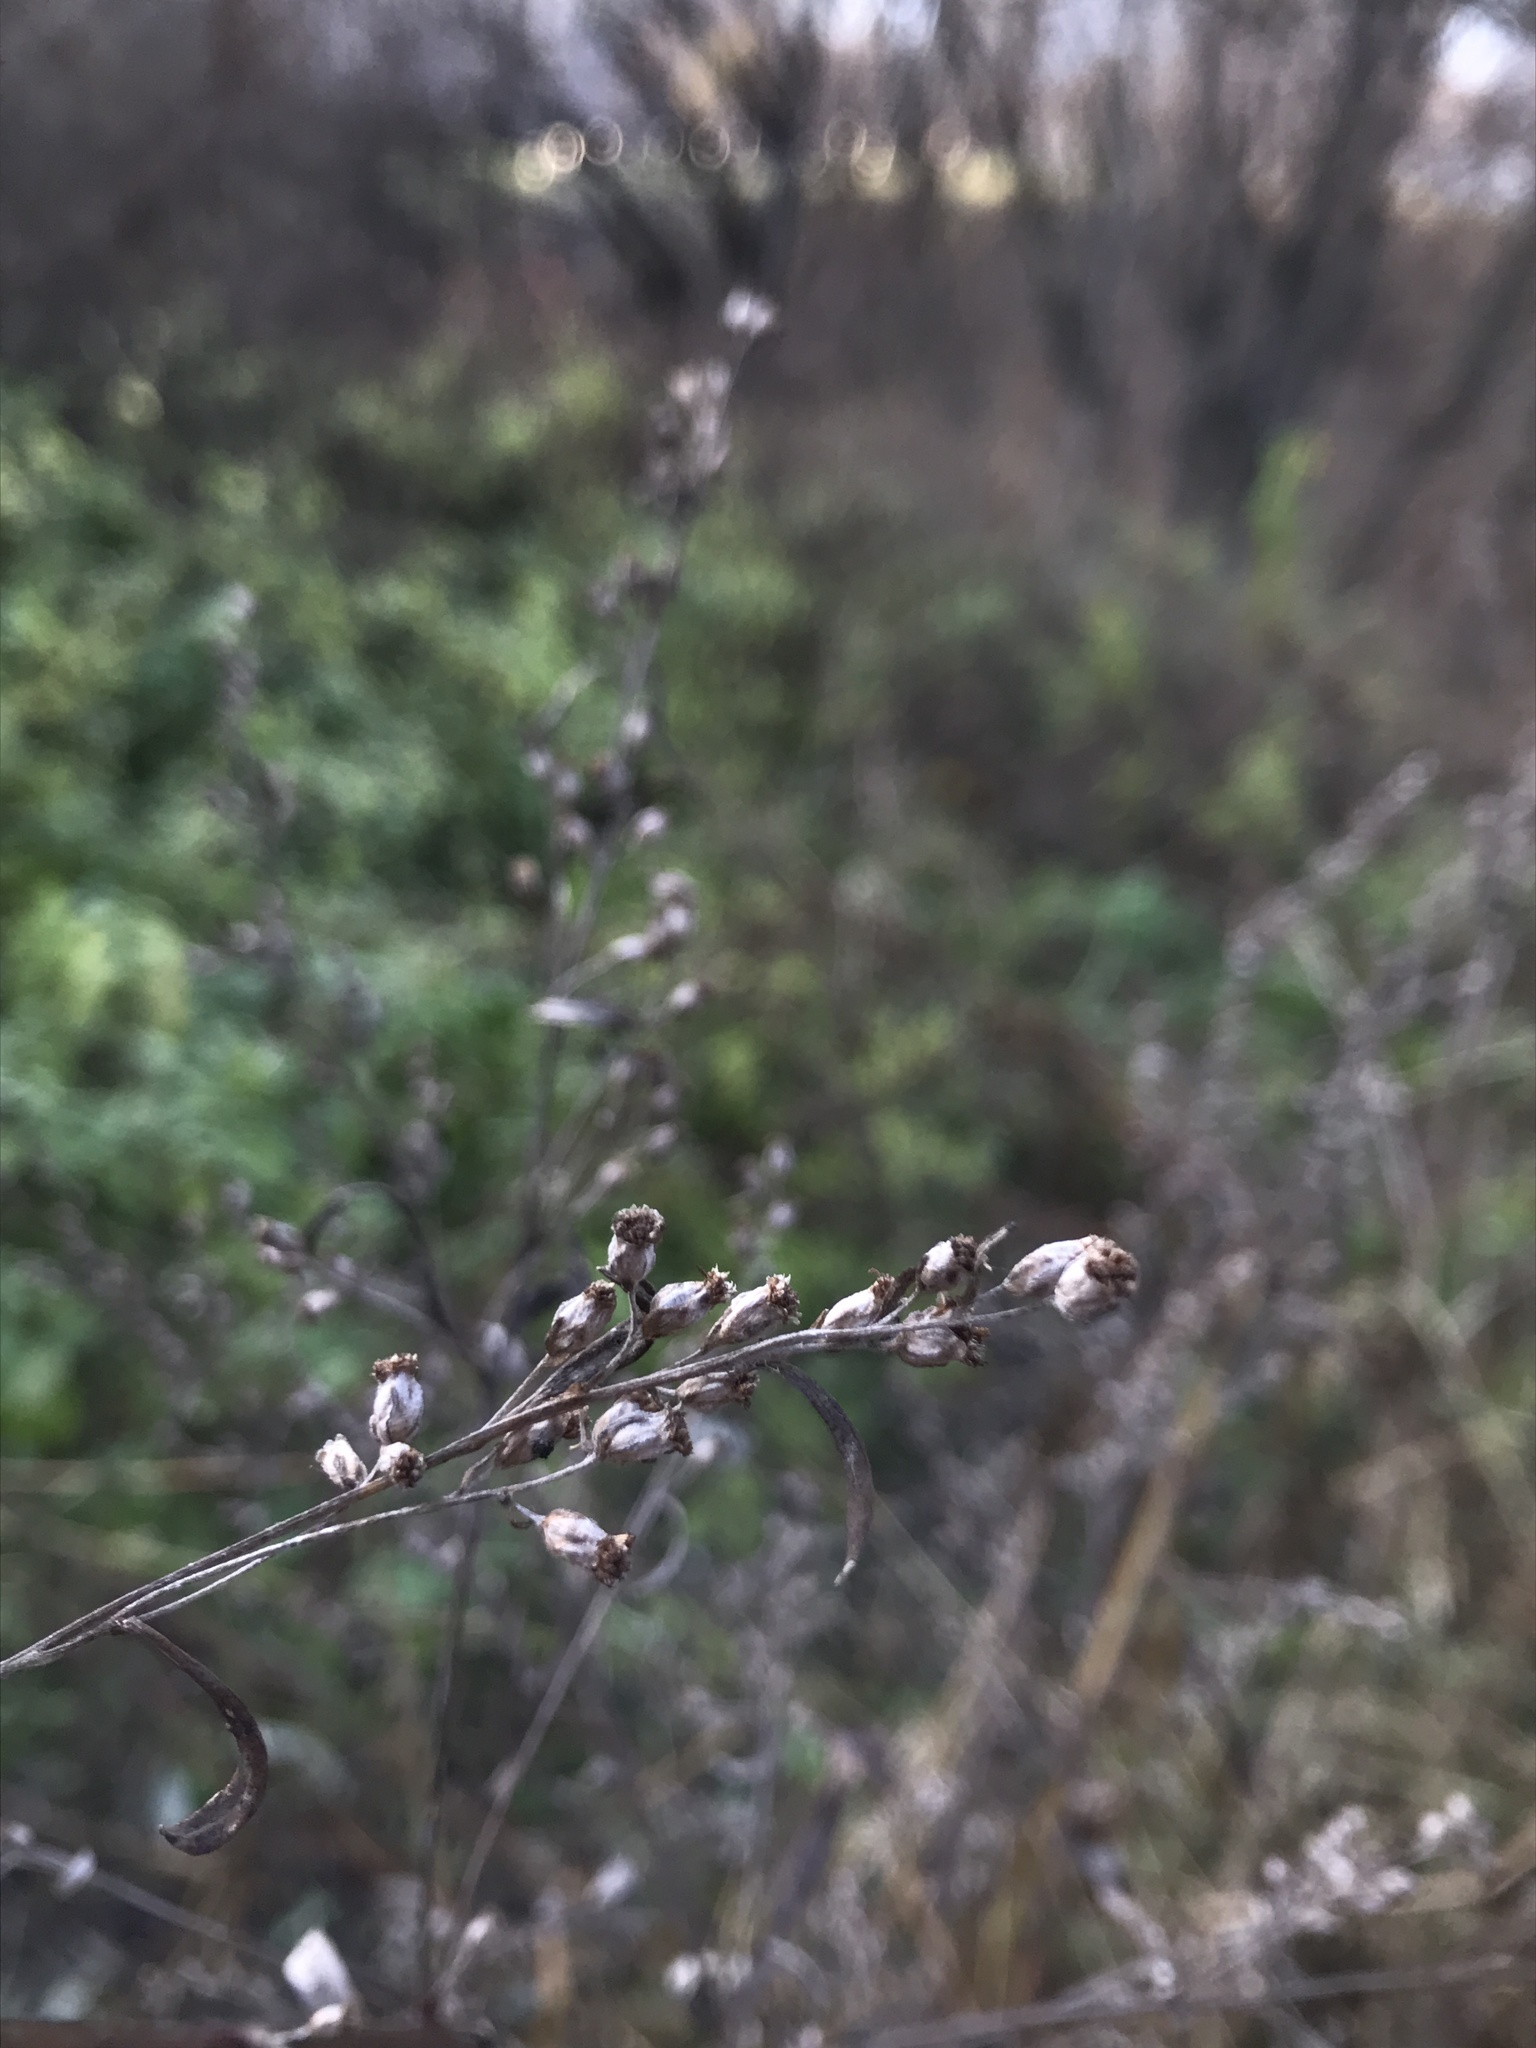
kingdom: Plantae
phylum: Tracheophyta
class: Magnoliopsida
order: Asterales
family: Asteraceae
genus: Artemisia
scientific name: Artemisia vulgaris
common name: Mugwort
